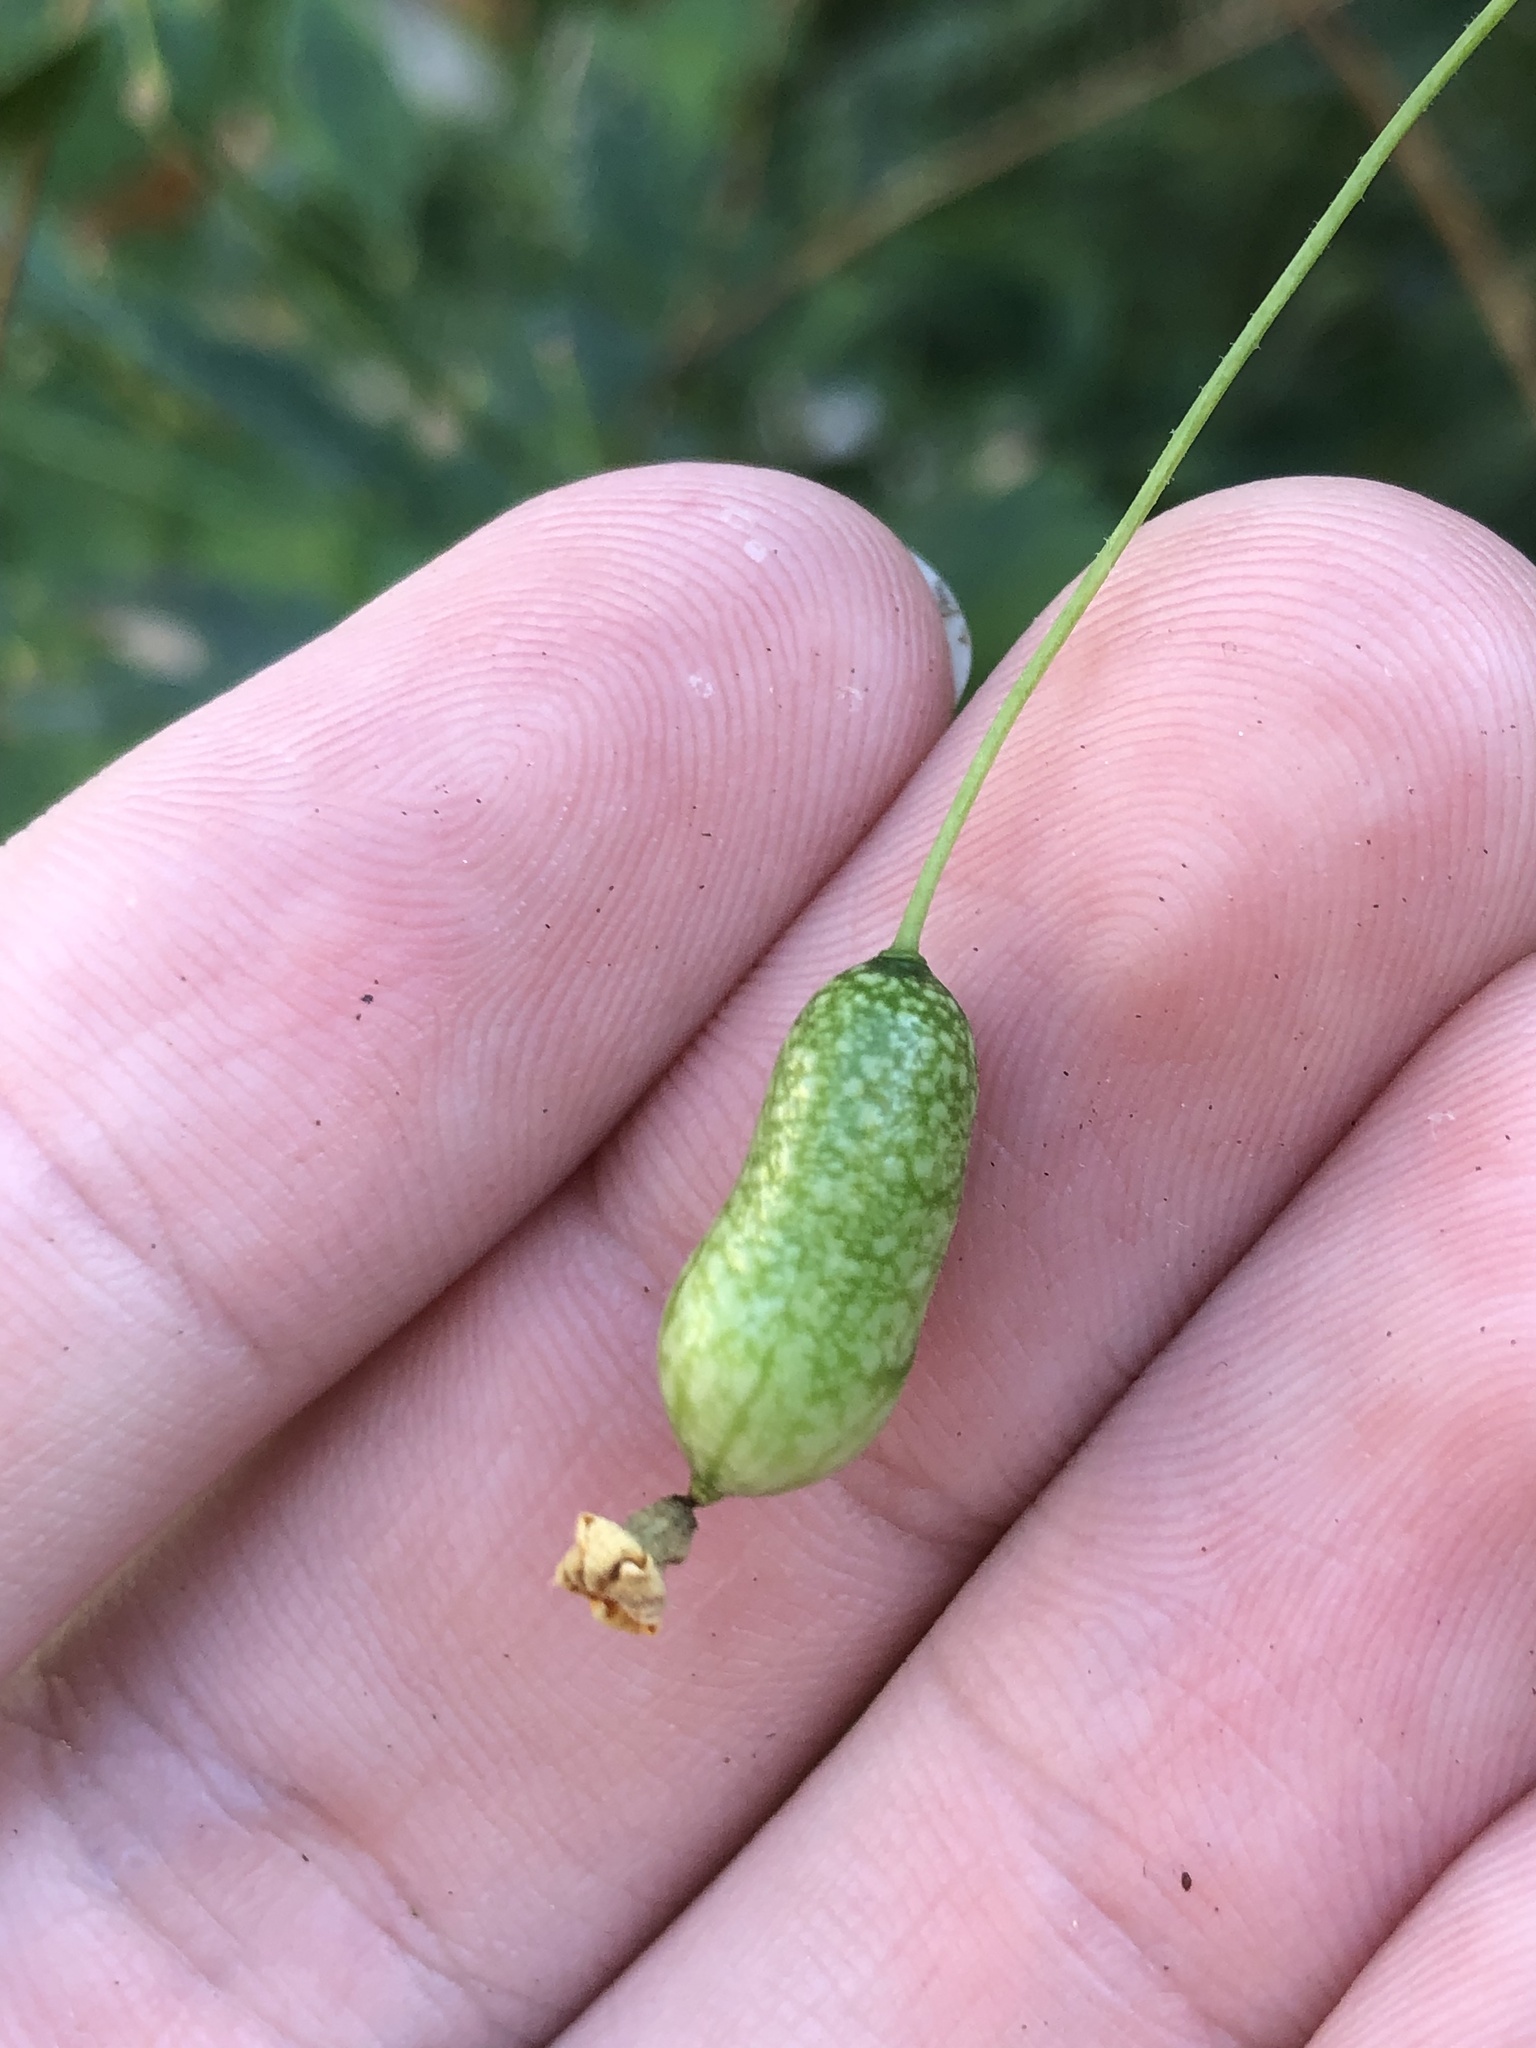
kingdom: Plantae
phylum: Tracheophyta
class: Magnoliopsida
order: Cucurbitales
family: Cucurbitaceae
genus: Melothria
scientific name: Melothria pendula
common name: Creeping-cucumber
